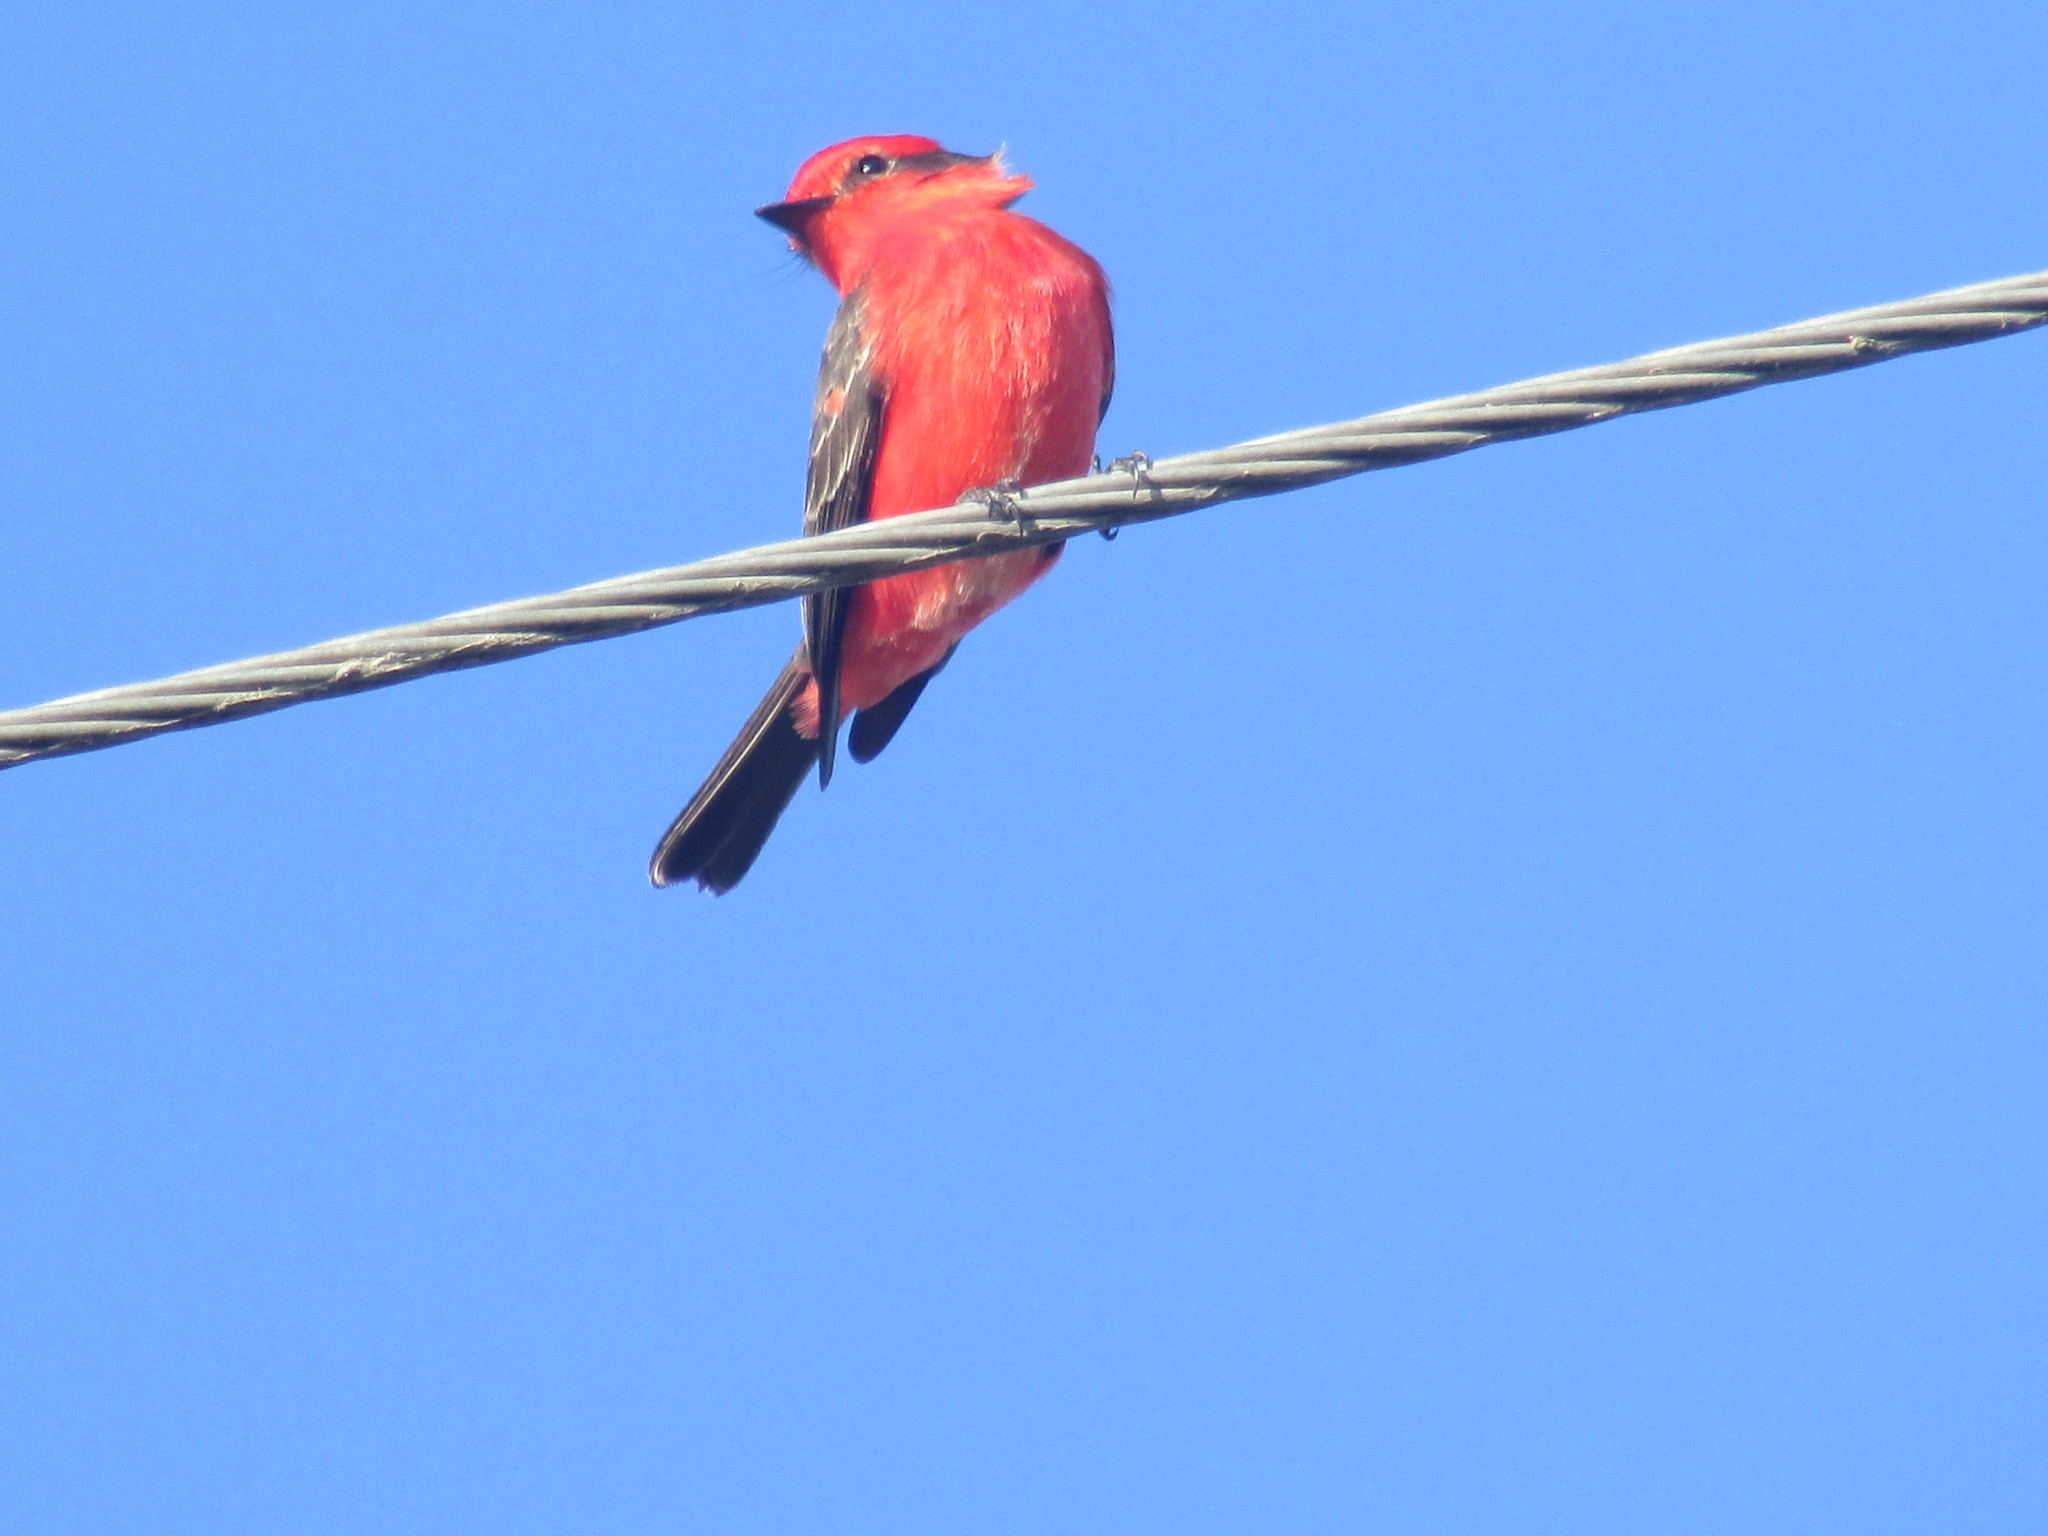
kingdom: Animalia
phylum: Chordata
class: Aves
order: Passeriformes
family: Tyrannidae
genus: Pyrocephalus
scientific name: Pyrocephalus rubinus
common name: Vermilion flycatcher
